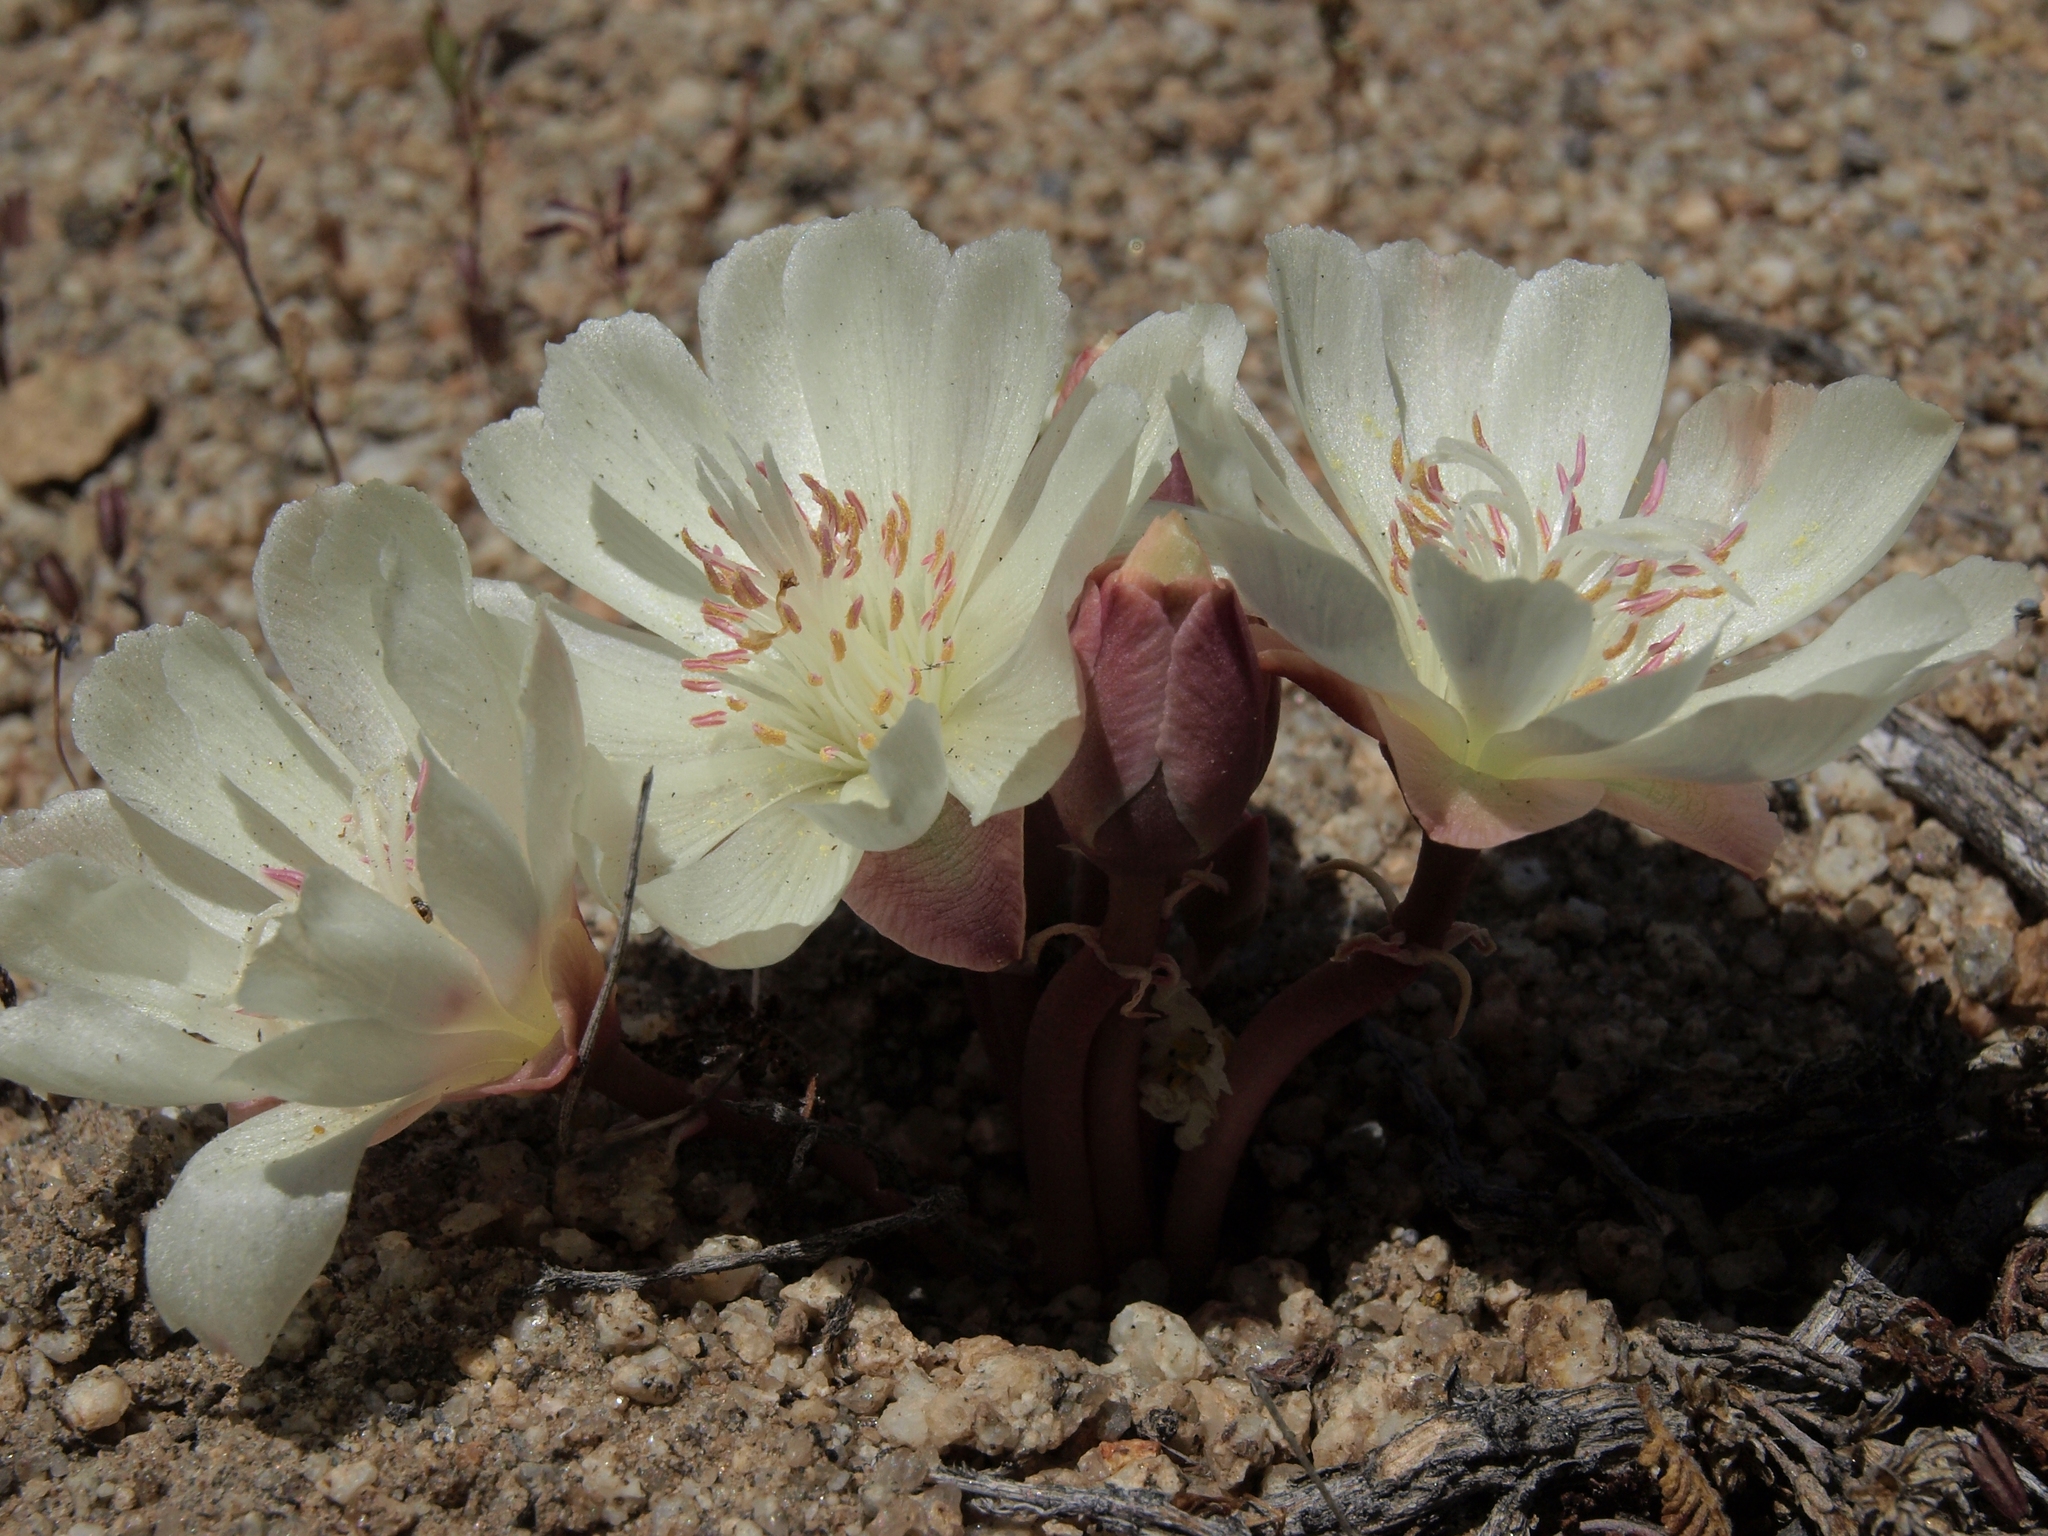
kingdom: Plantae
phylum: Tracheophyta
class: Magnoliopsida
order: Caryophyllales
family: Montiaceae
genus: Lewisia
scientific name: Lewisia rediviva
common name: Bitter-root
